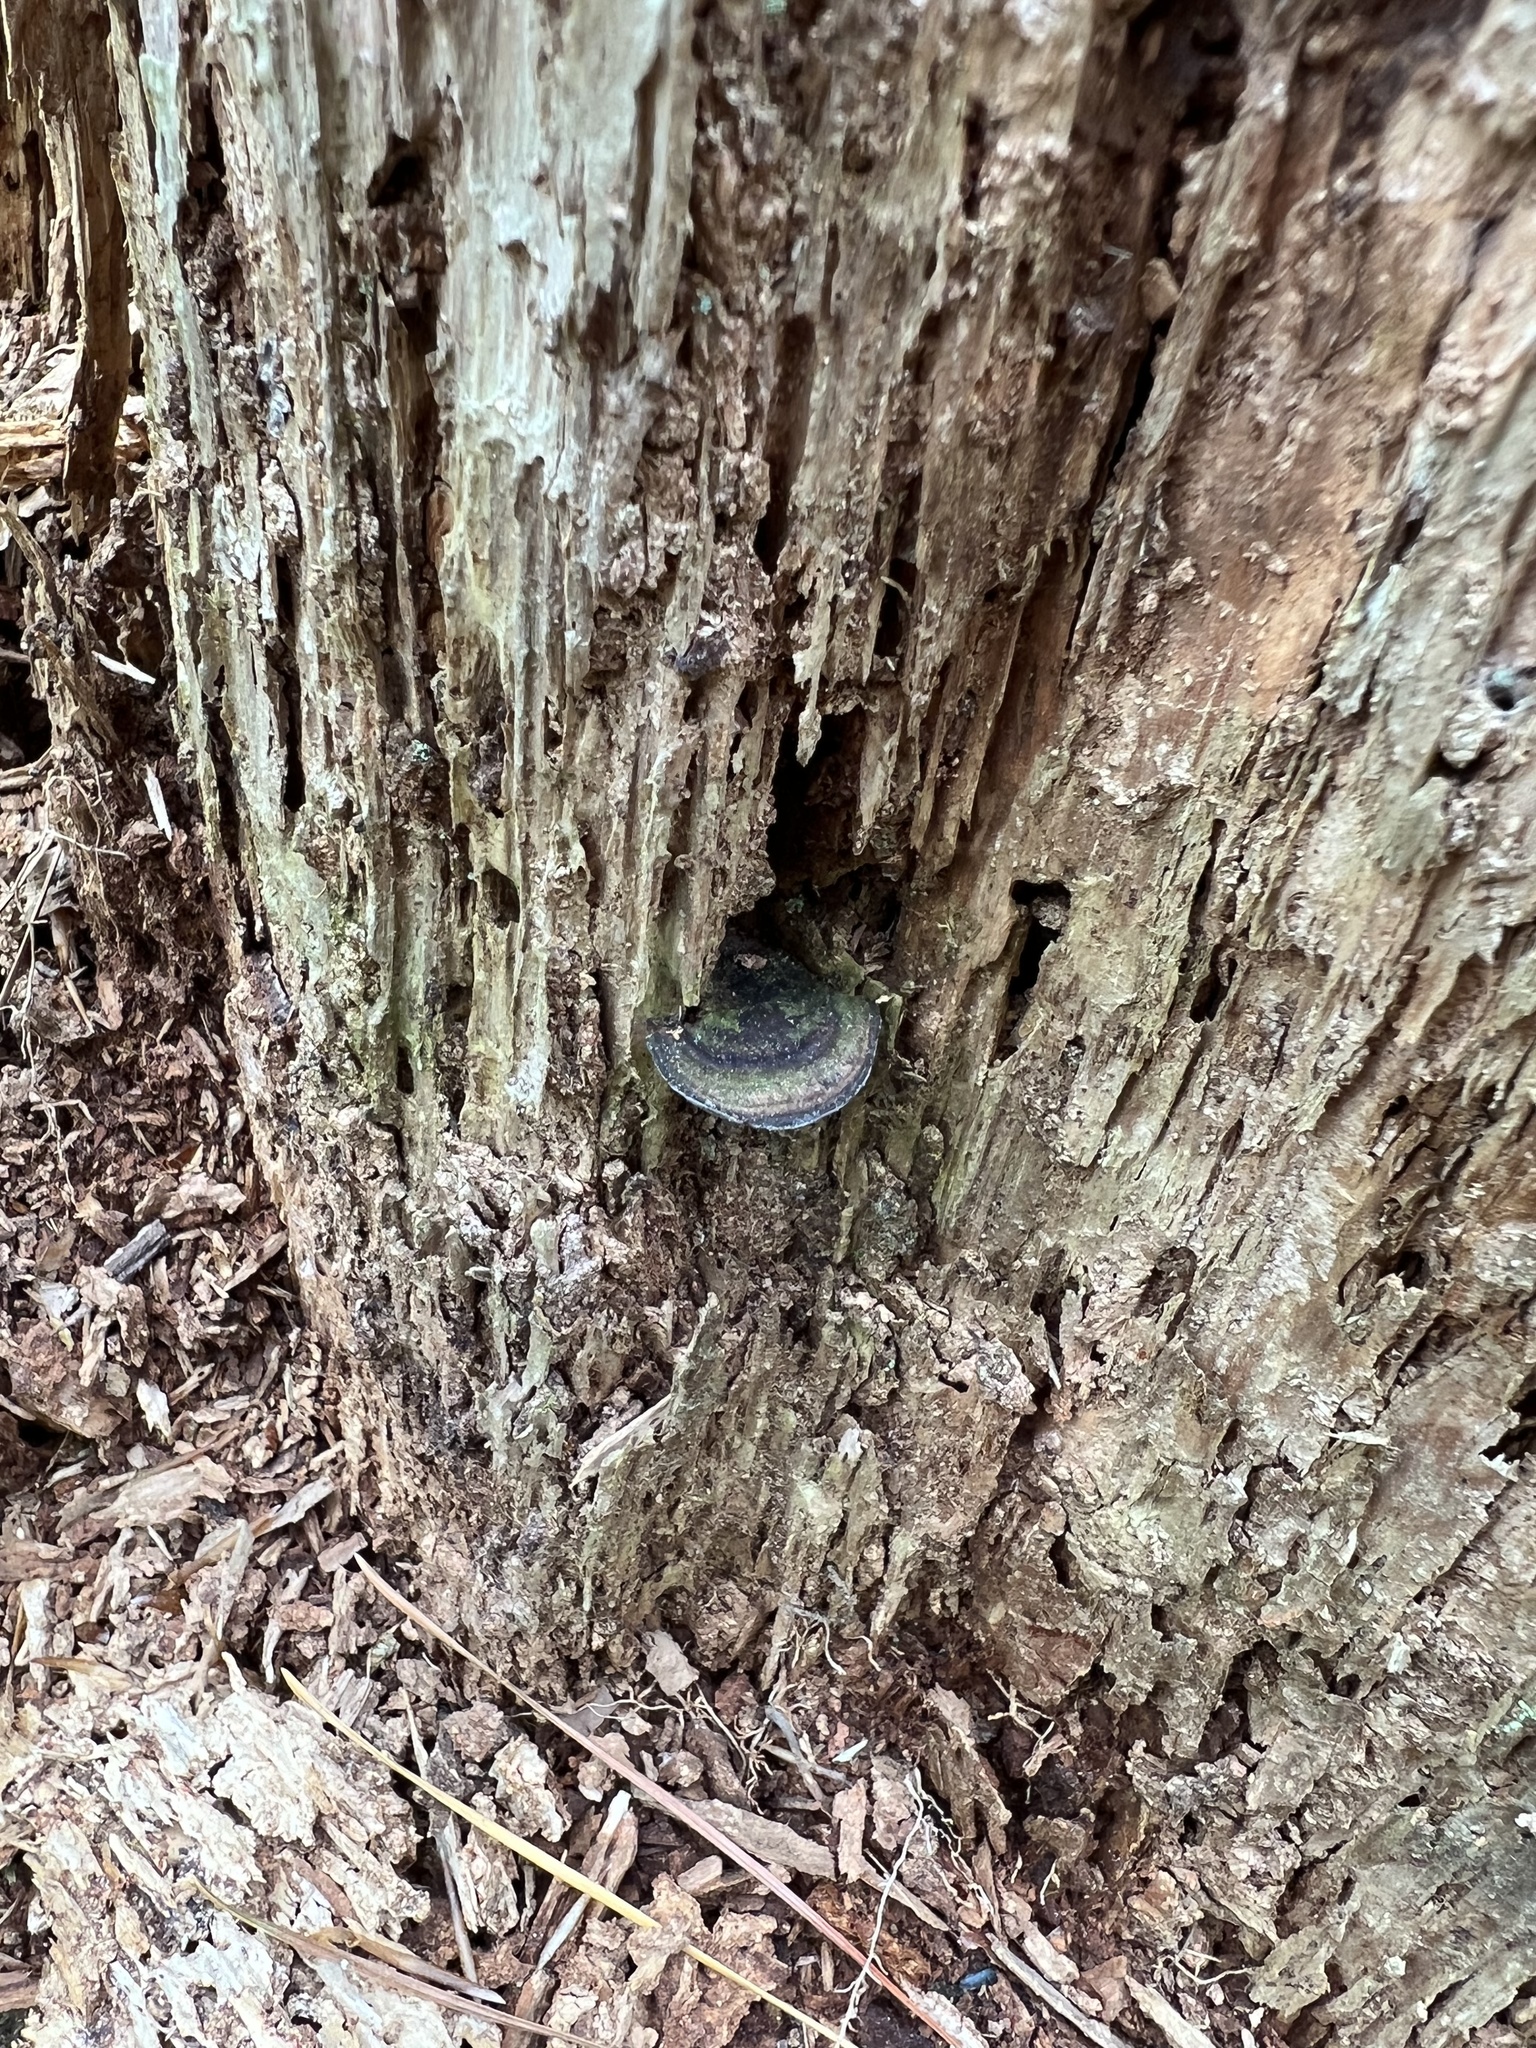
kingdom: Fungi
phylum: Basidiomycota
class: Agaricomycetes
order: Polyporales
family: Steccherinaceae
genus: Nigroporus
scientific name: Nigroporus vinosus
